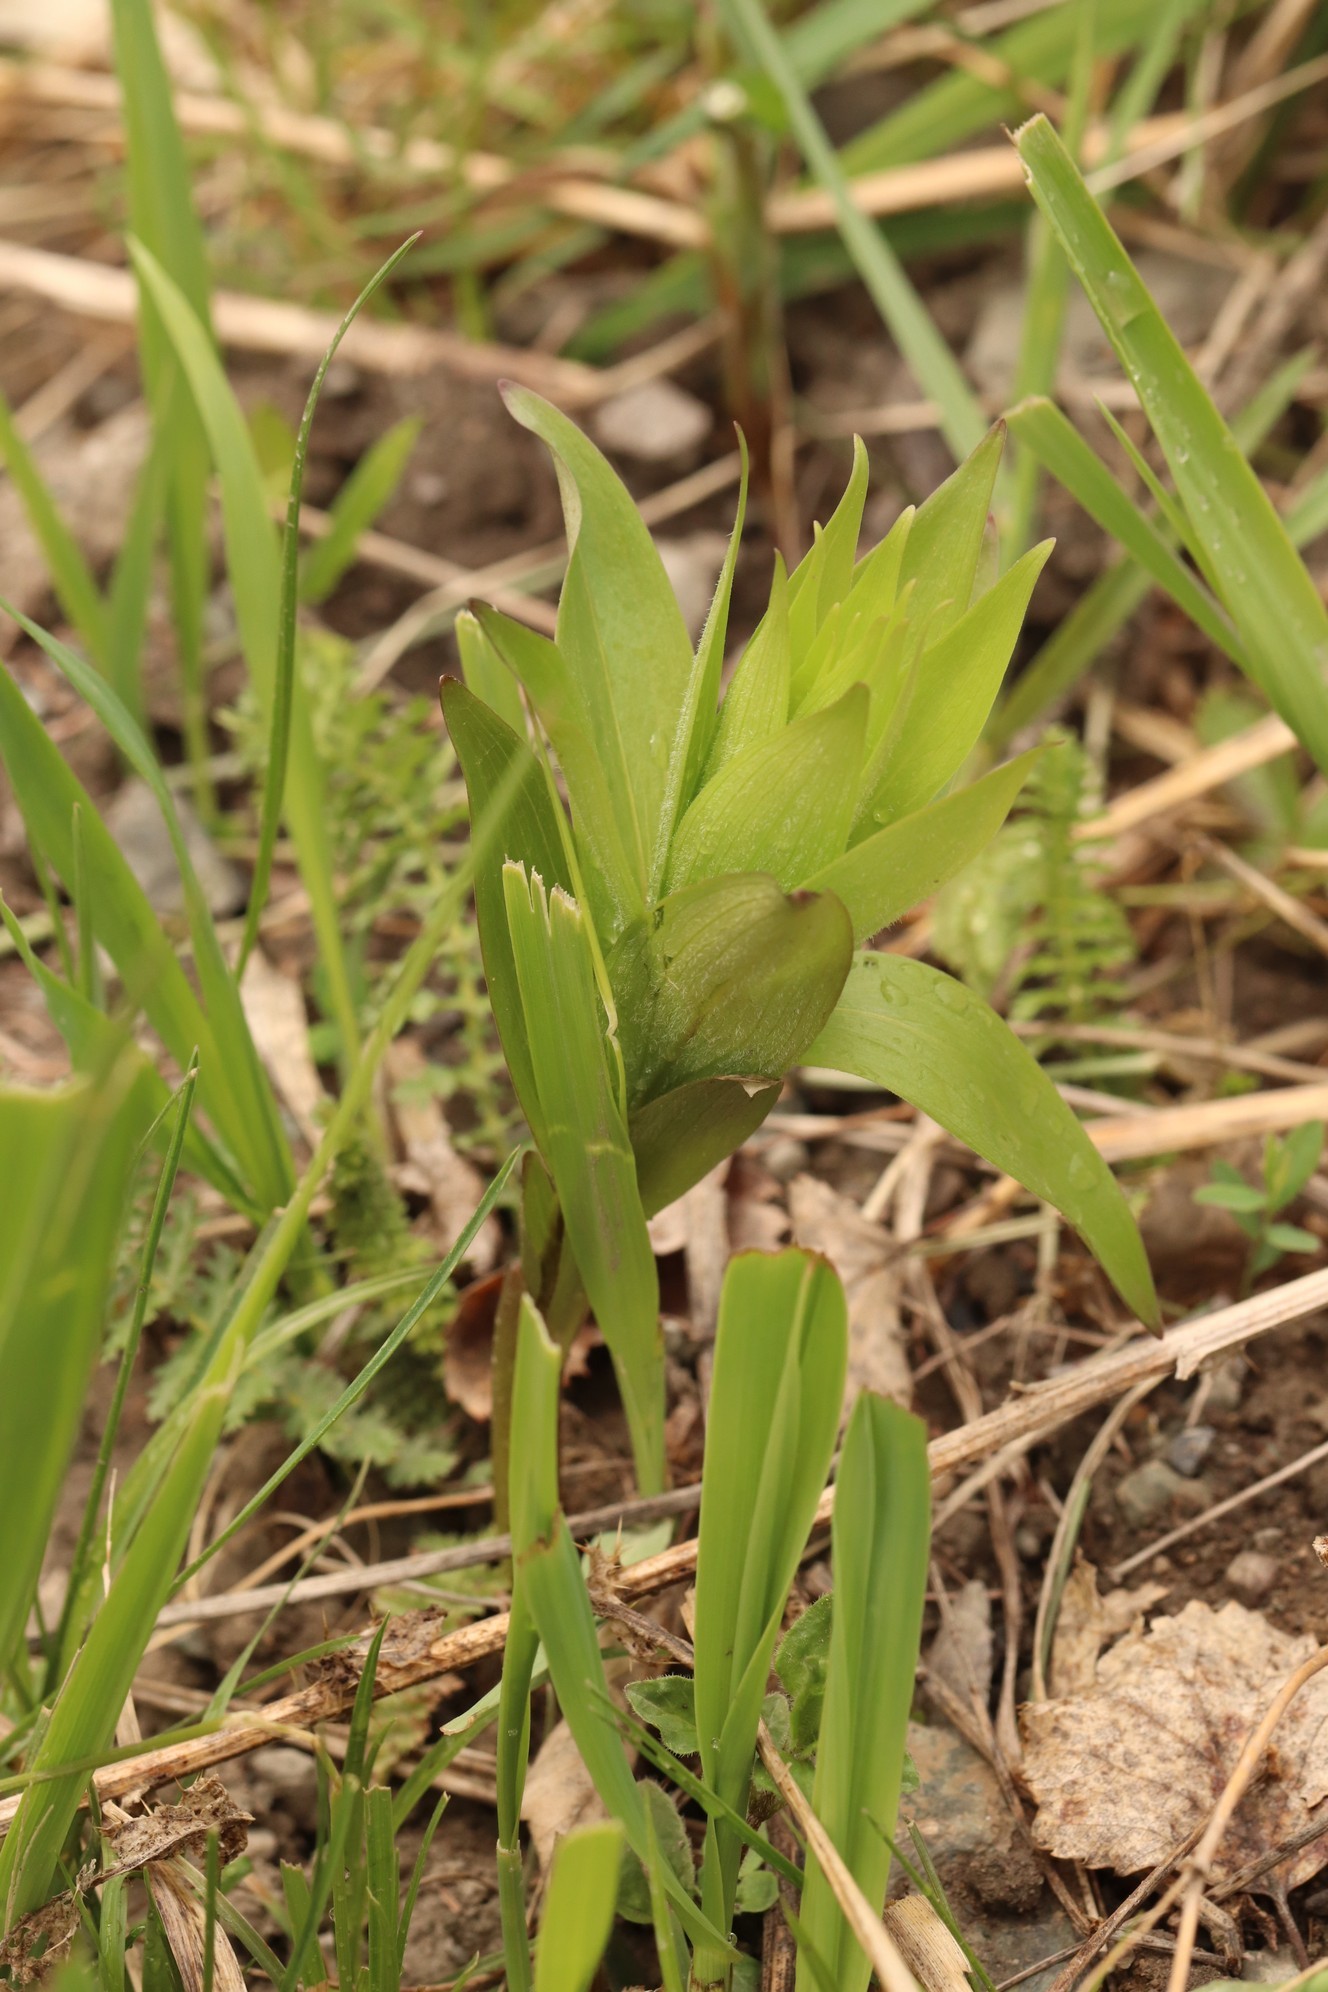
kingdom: Plantae
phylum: Tracheophyta
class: Liliopsida
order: Liliales
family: Liliaceae
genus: Lilium
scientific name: Lilium martagon
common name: Martagon lily
